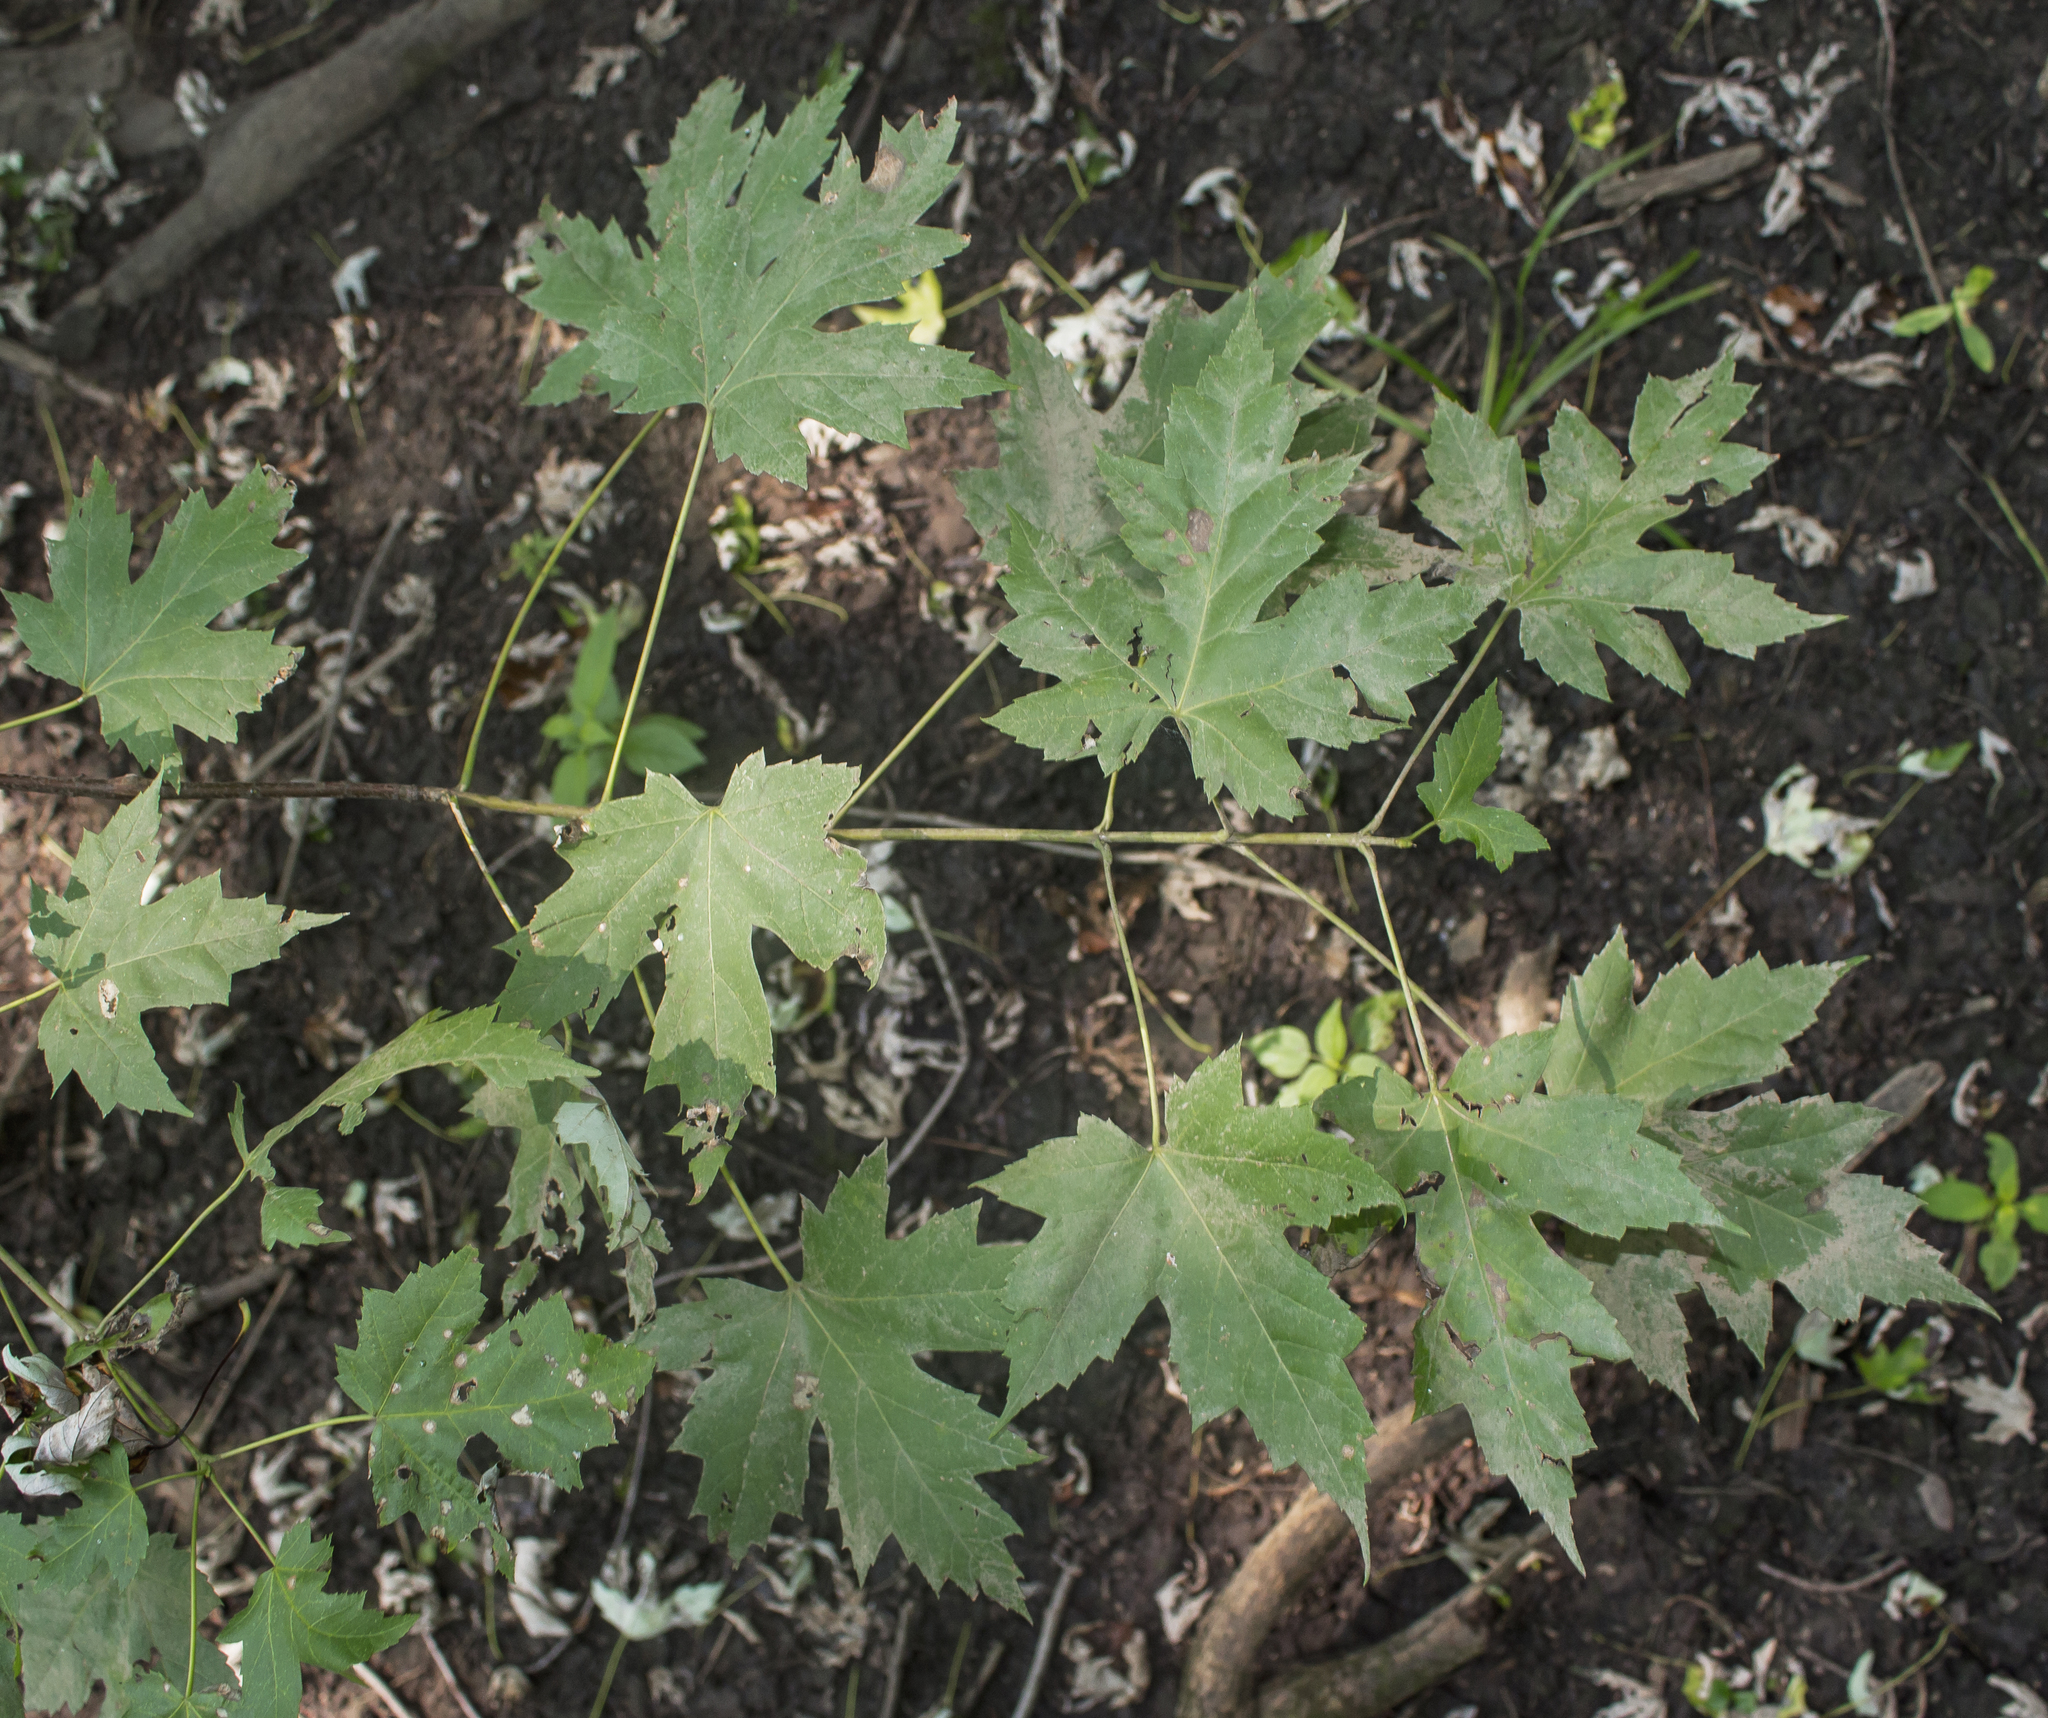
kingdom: Plantae
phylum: Tracheophyta
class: Magnoliopsida
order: Sapindales
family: Sapindaceae
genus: Acer
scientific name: Acer saccharinum
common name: Silver maple
